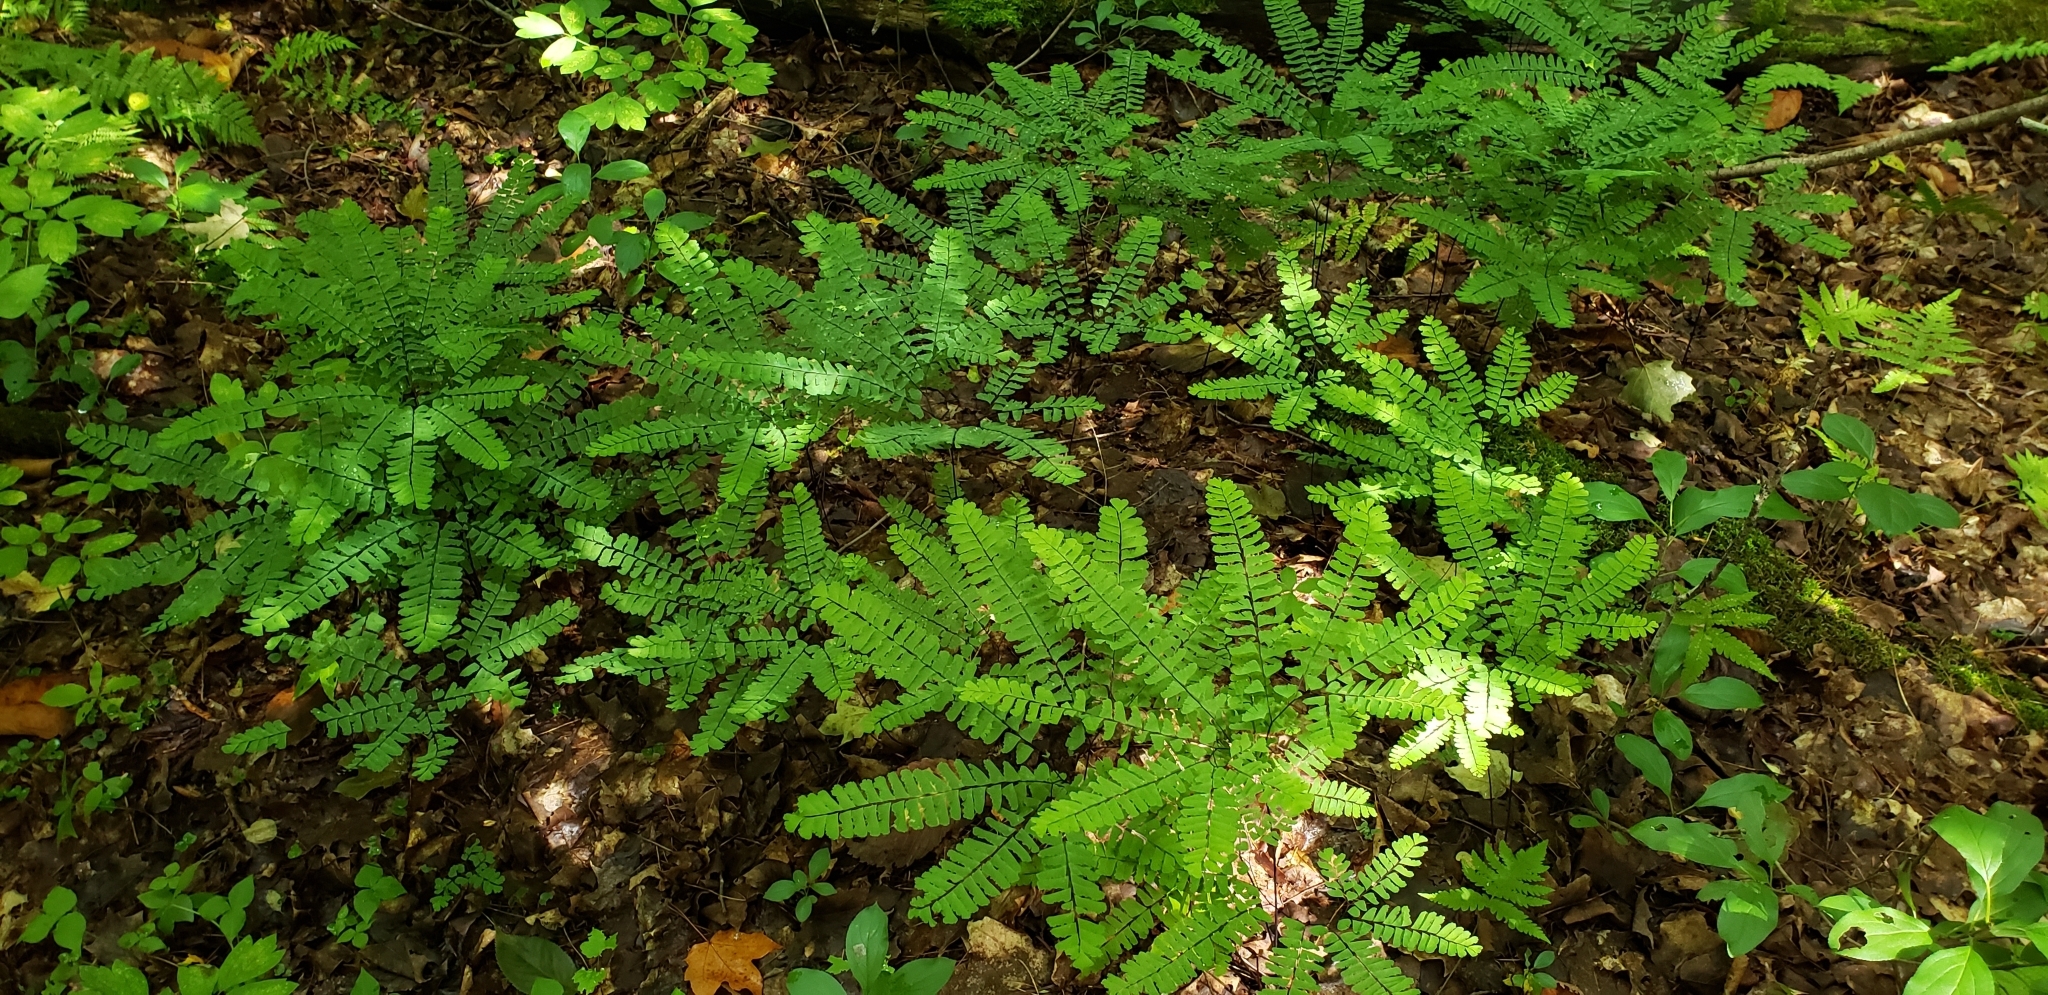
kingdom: Plantae
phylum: Tracheophyta
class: Polypodiopsida
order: Polypodiales
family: Pteridaceae
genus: Adiantum
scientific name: Adiantum pedatum
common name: Five-finger fern
